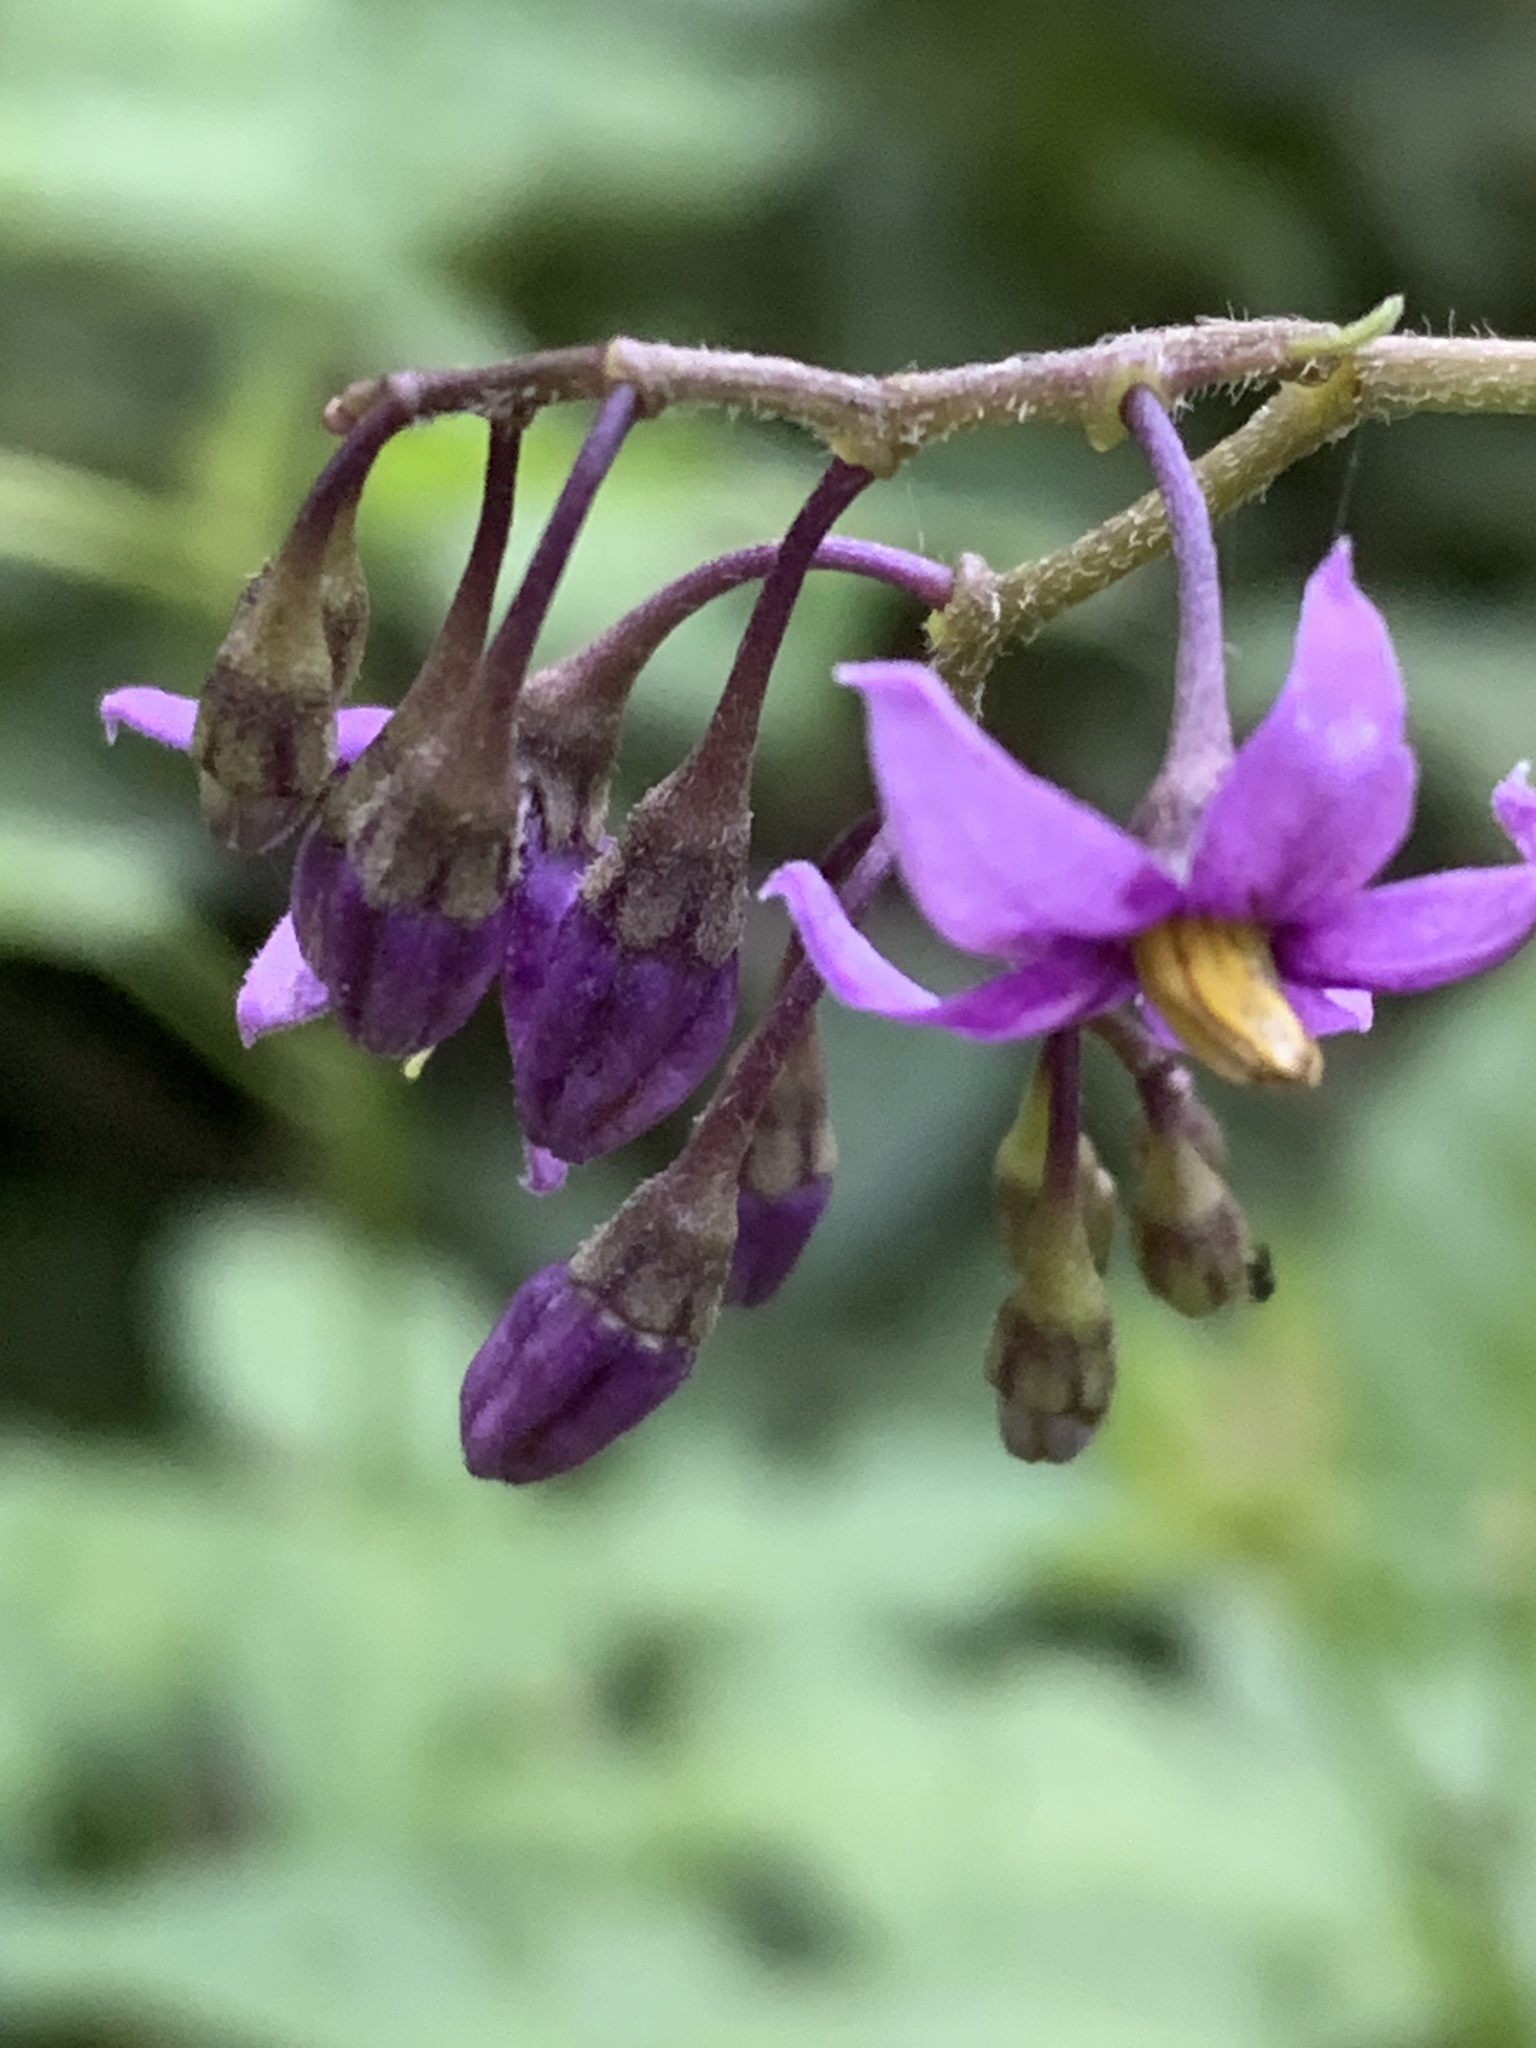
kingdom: Plantae
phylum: Tracheophyta
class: Magnoliopsida
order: Solanales
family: Solanaceae
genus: Solanum
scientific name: Solanum dulcamara
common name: Climbing nightshade
